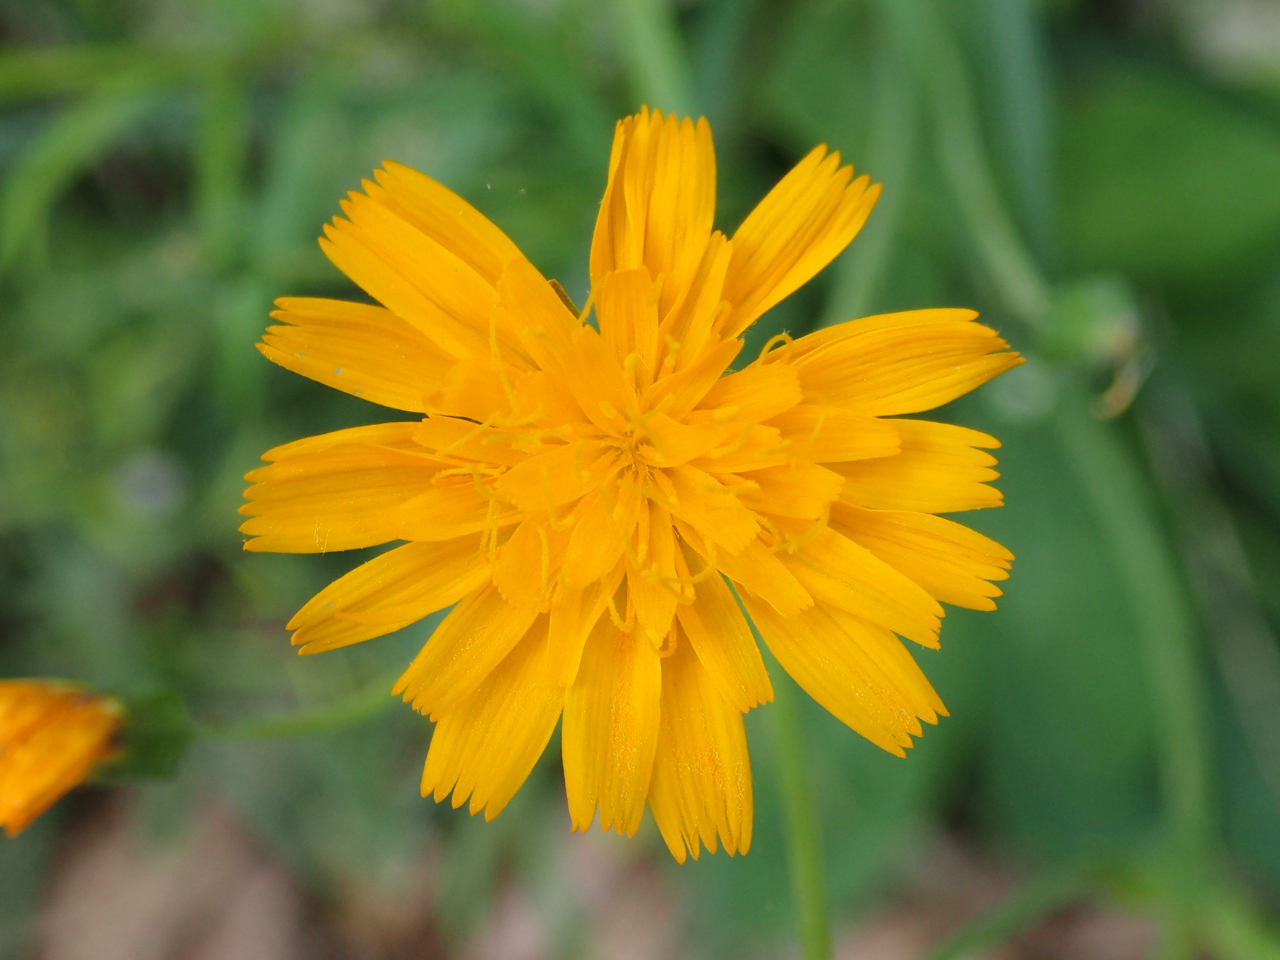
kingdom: Plantae
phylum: Tracheophyta
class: Magnoliopsida
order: Asterales
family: Asteraceae
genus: Krigia
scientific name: Krigia biflora
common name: Orange dwarf-dandelion
